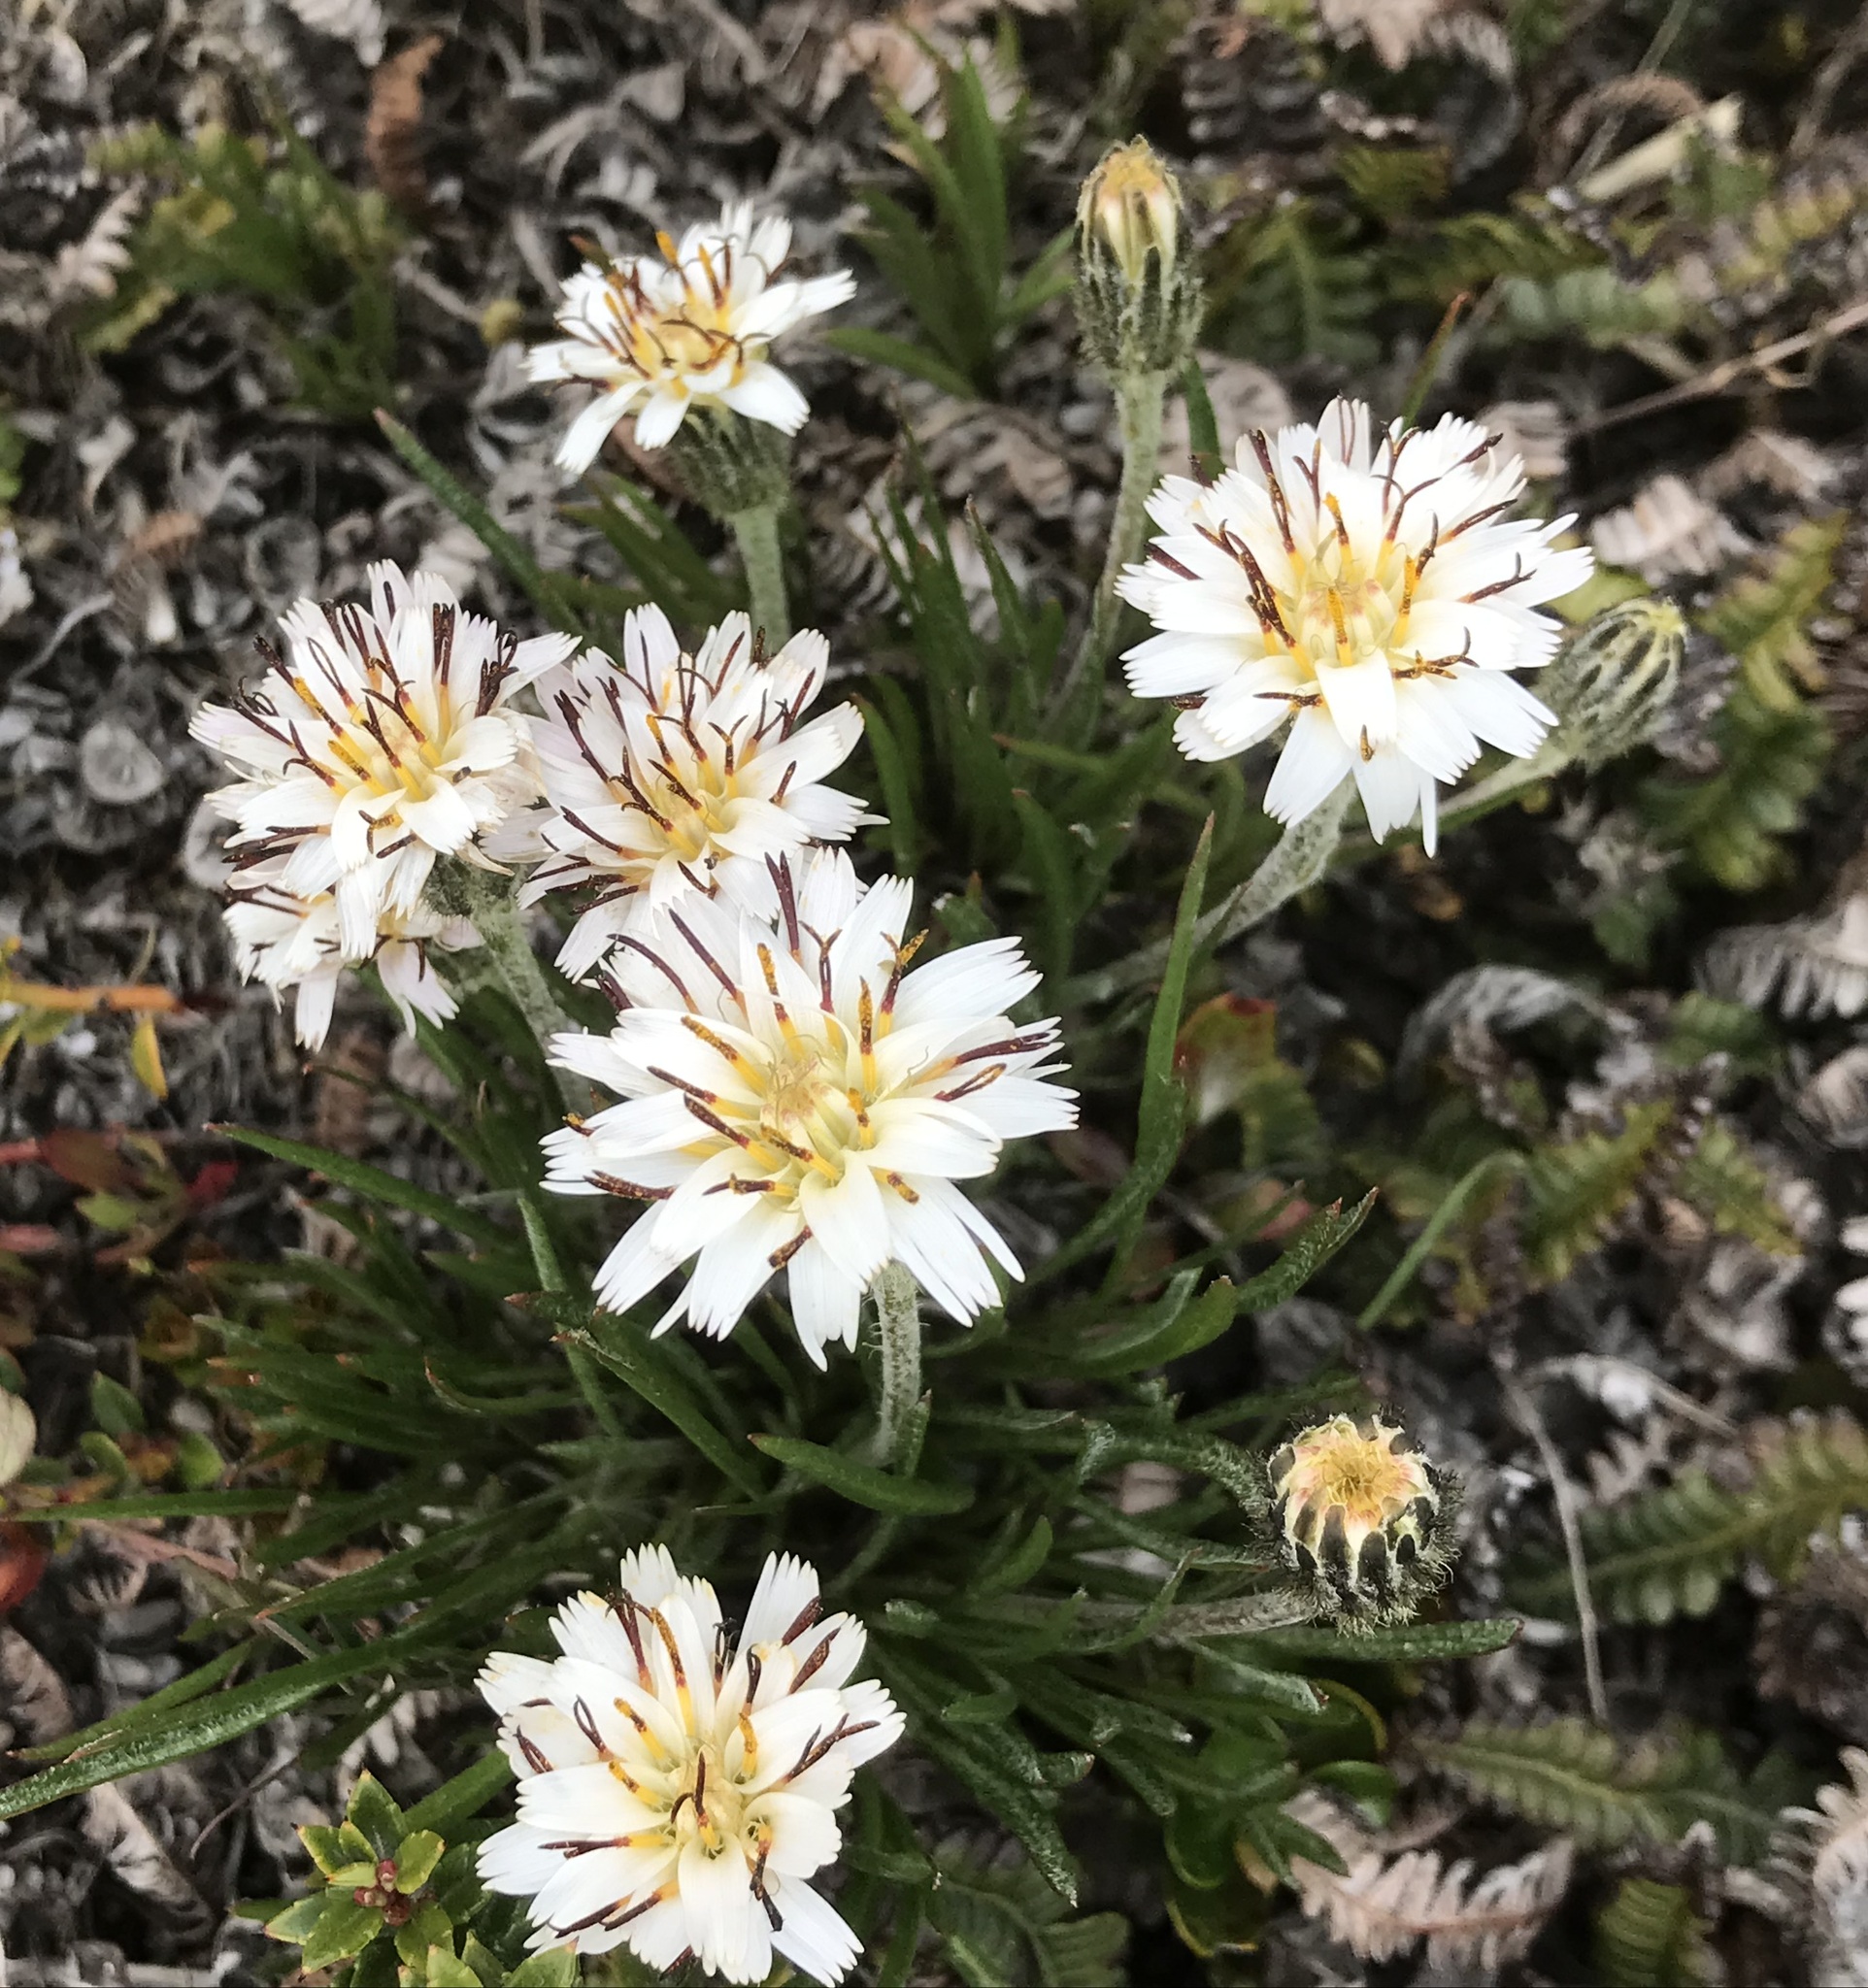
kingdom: Plantae
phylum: Tracheophyta
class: Magnoliopsida
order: Asterales
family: Asteraceae
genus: Hypochaeris
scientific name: Hypochaeris incana
